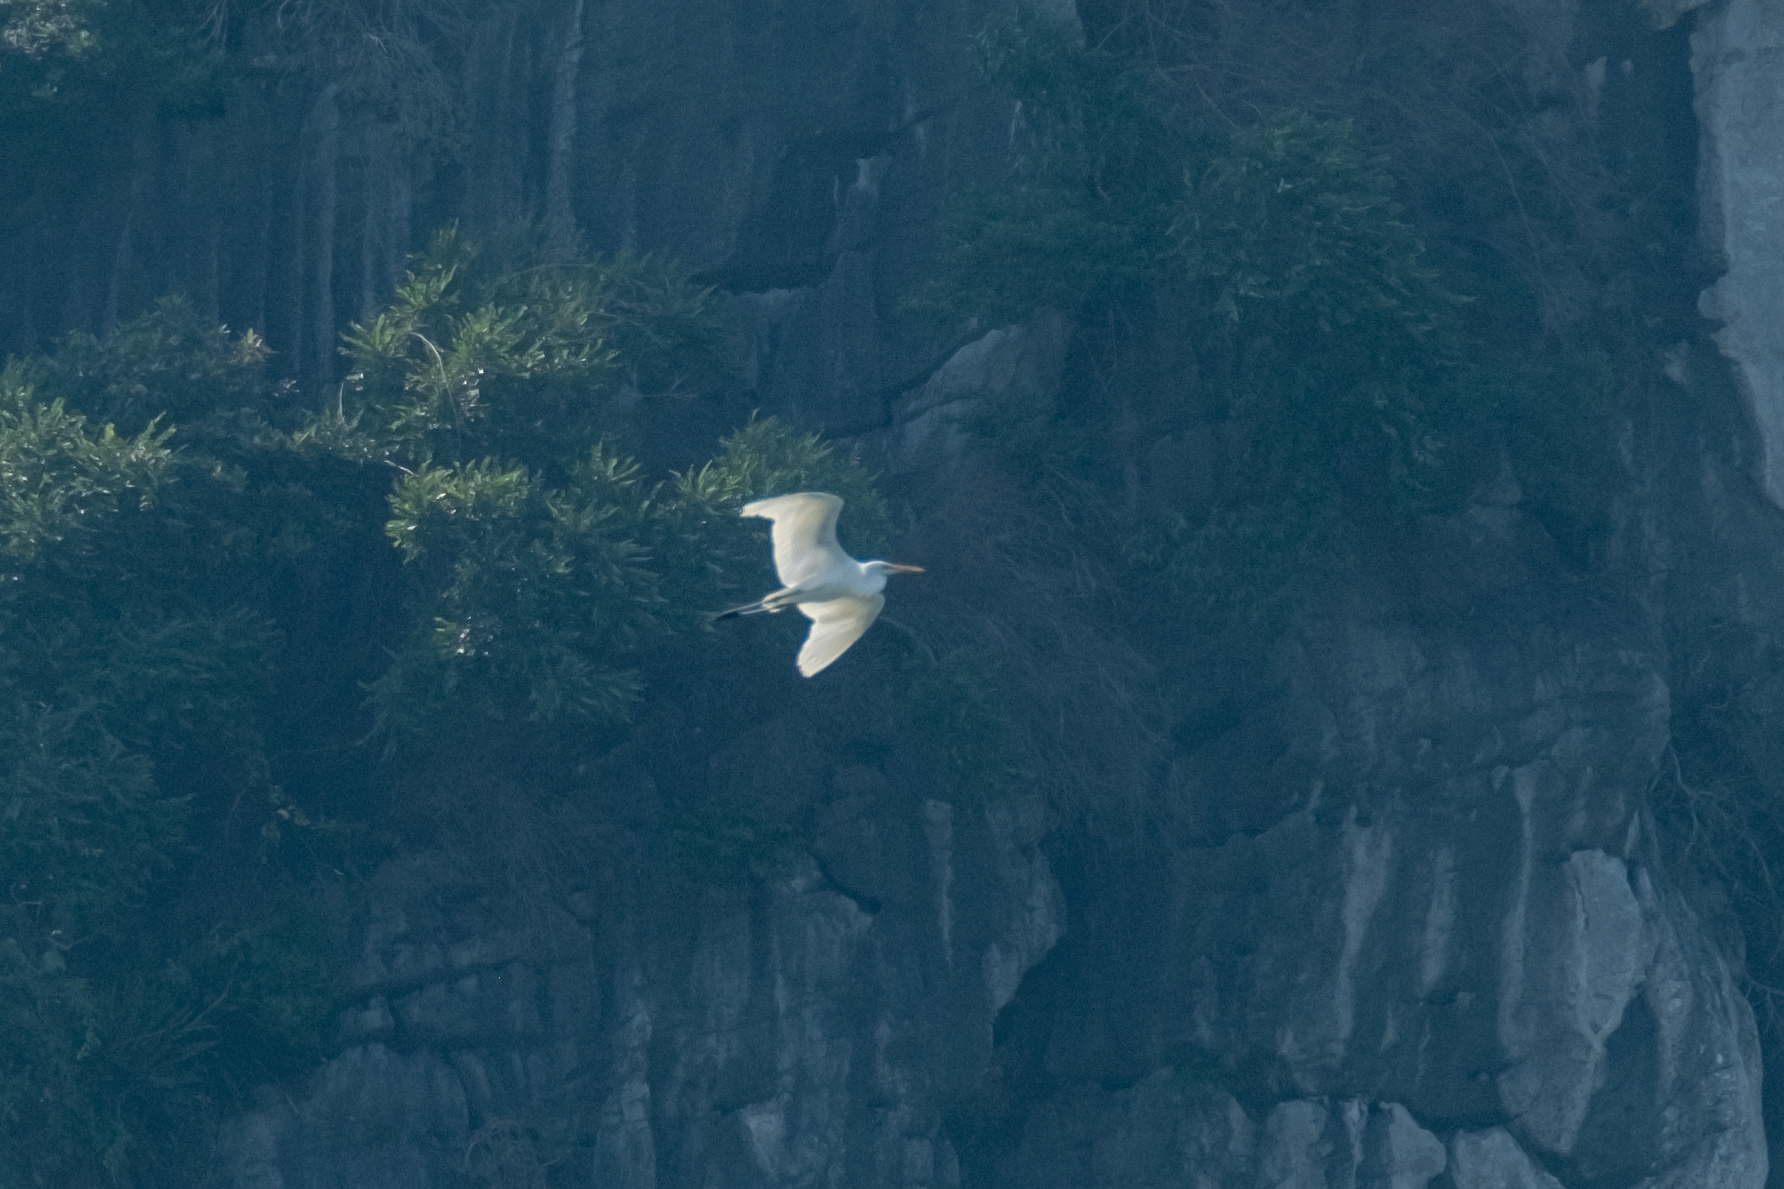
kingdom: Animalia
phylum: Chordata
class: Aves
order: Pelecaniformes
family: Ardeidae
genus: Ardea
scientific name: Ardea alba
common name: Great egret
